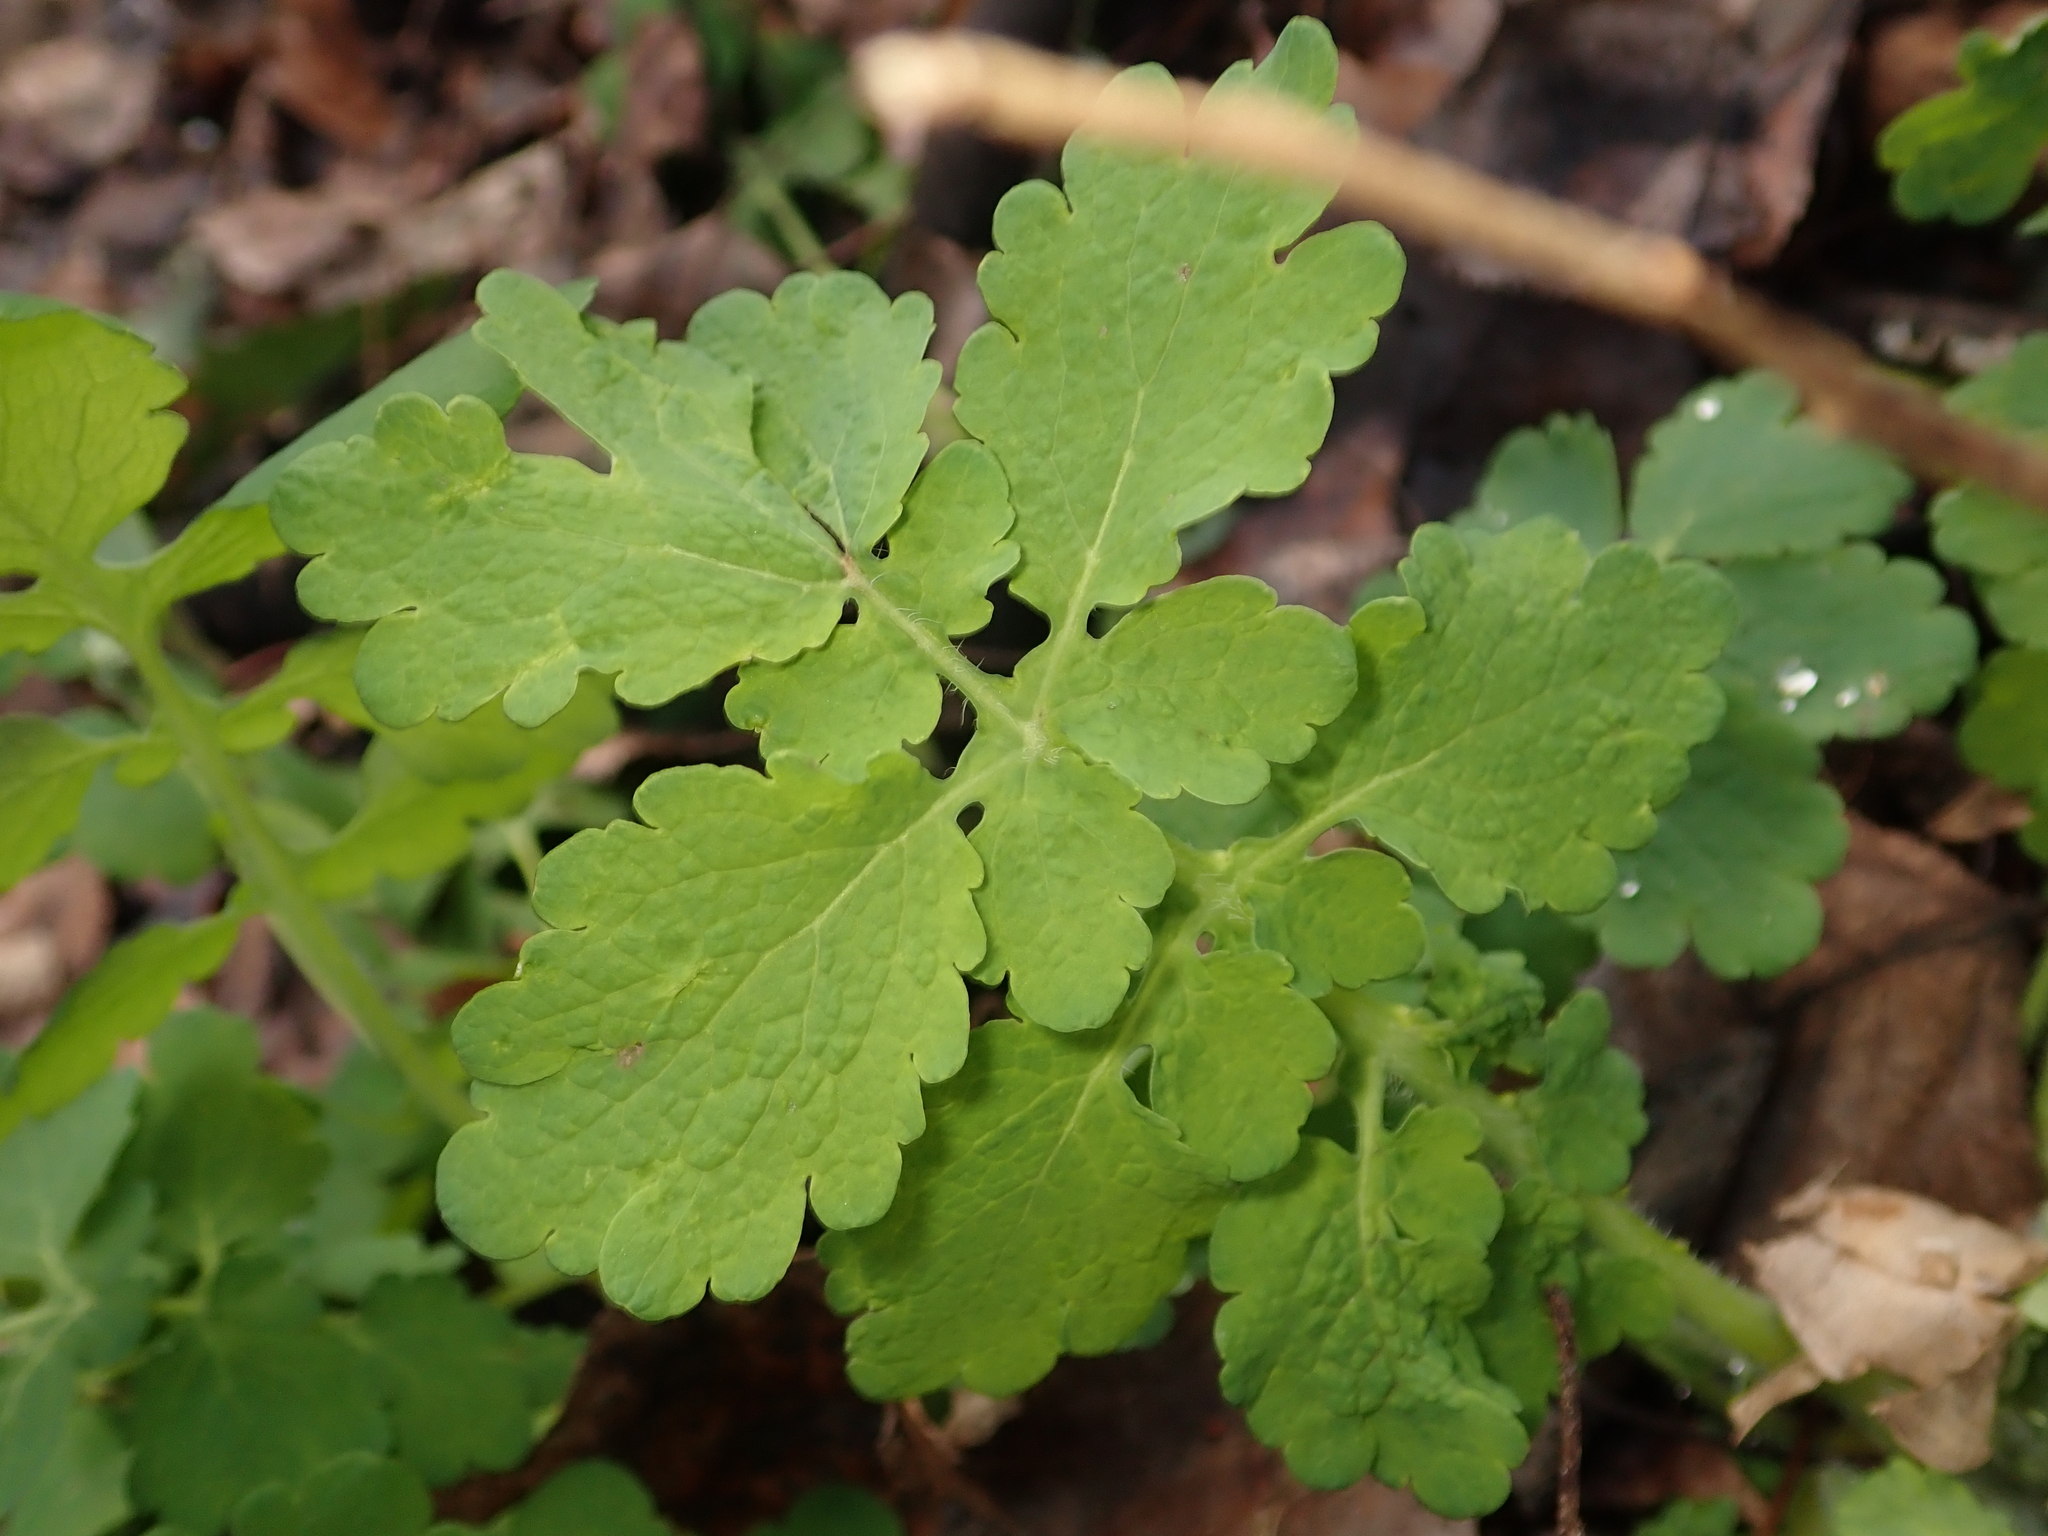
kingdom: Plantae
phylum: Tracheophyta
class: Magnoliopsida
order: Ranunculales
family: Papaveraceae
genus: Chelidonium
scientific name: Chelidonium majus
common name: Greater celandine
